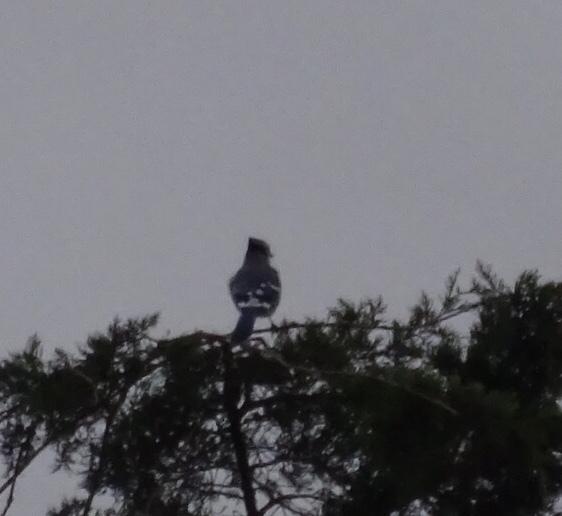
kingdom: Animalia
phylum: Chordata
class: Aves
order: Passeriformes
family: Corvidae
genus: Cyanocitta
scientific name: Cyanocitta cristata
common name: Blue jay
